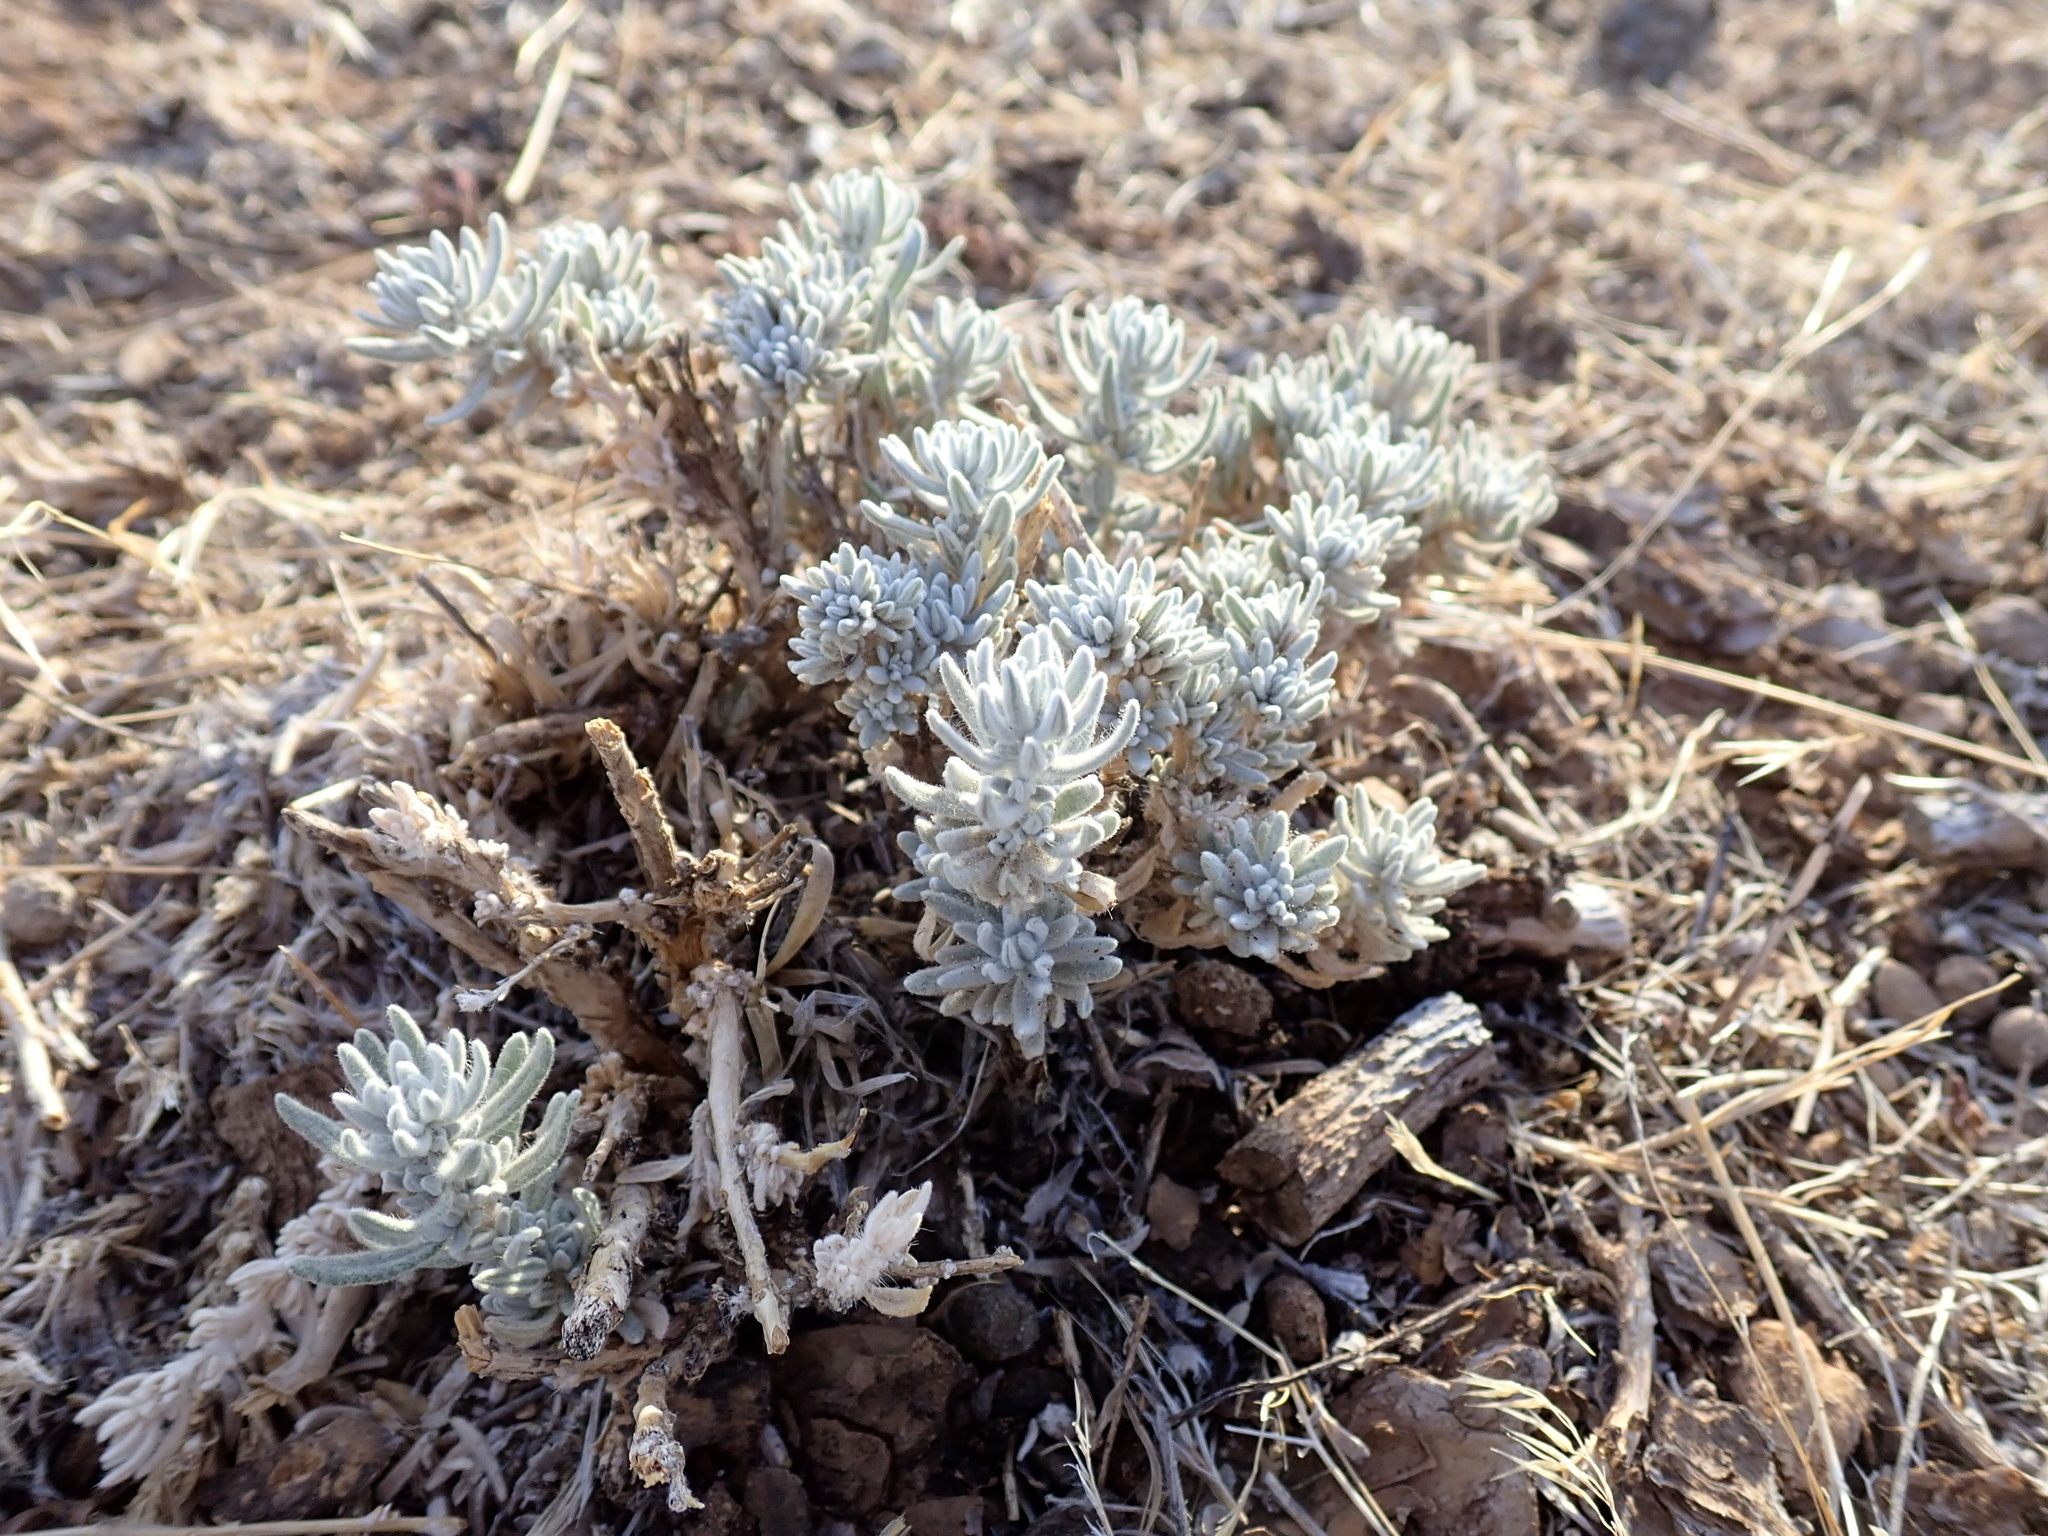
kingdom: Plantae
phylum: Tracheophyta
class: Magnoliopsida
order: Caryophyllales
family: Amaranthaceae
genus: Krascheninnikovia
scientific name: Krascheninnikovia lanata
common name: Winterfat
